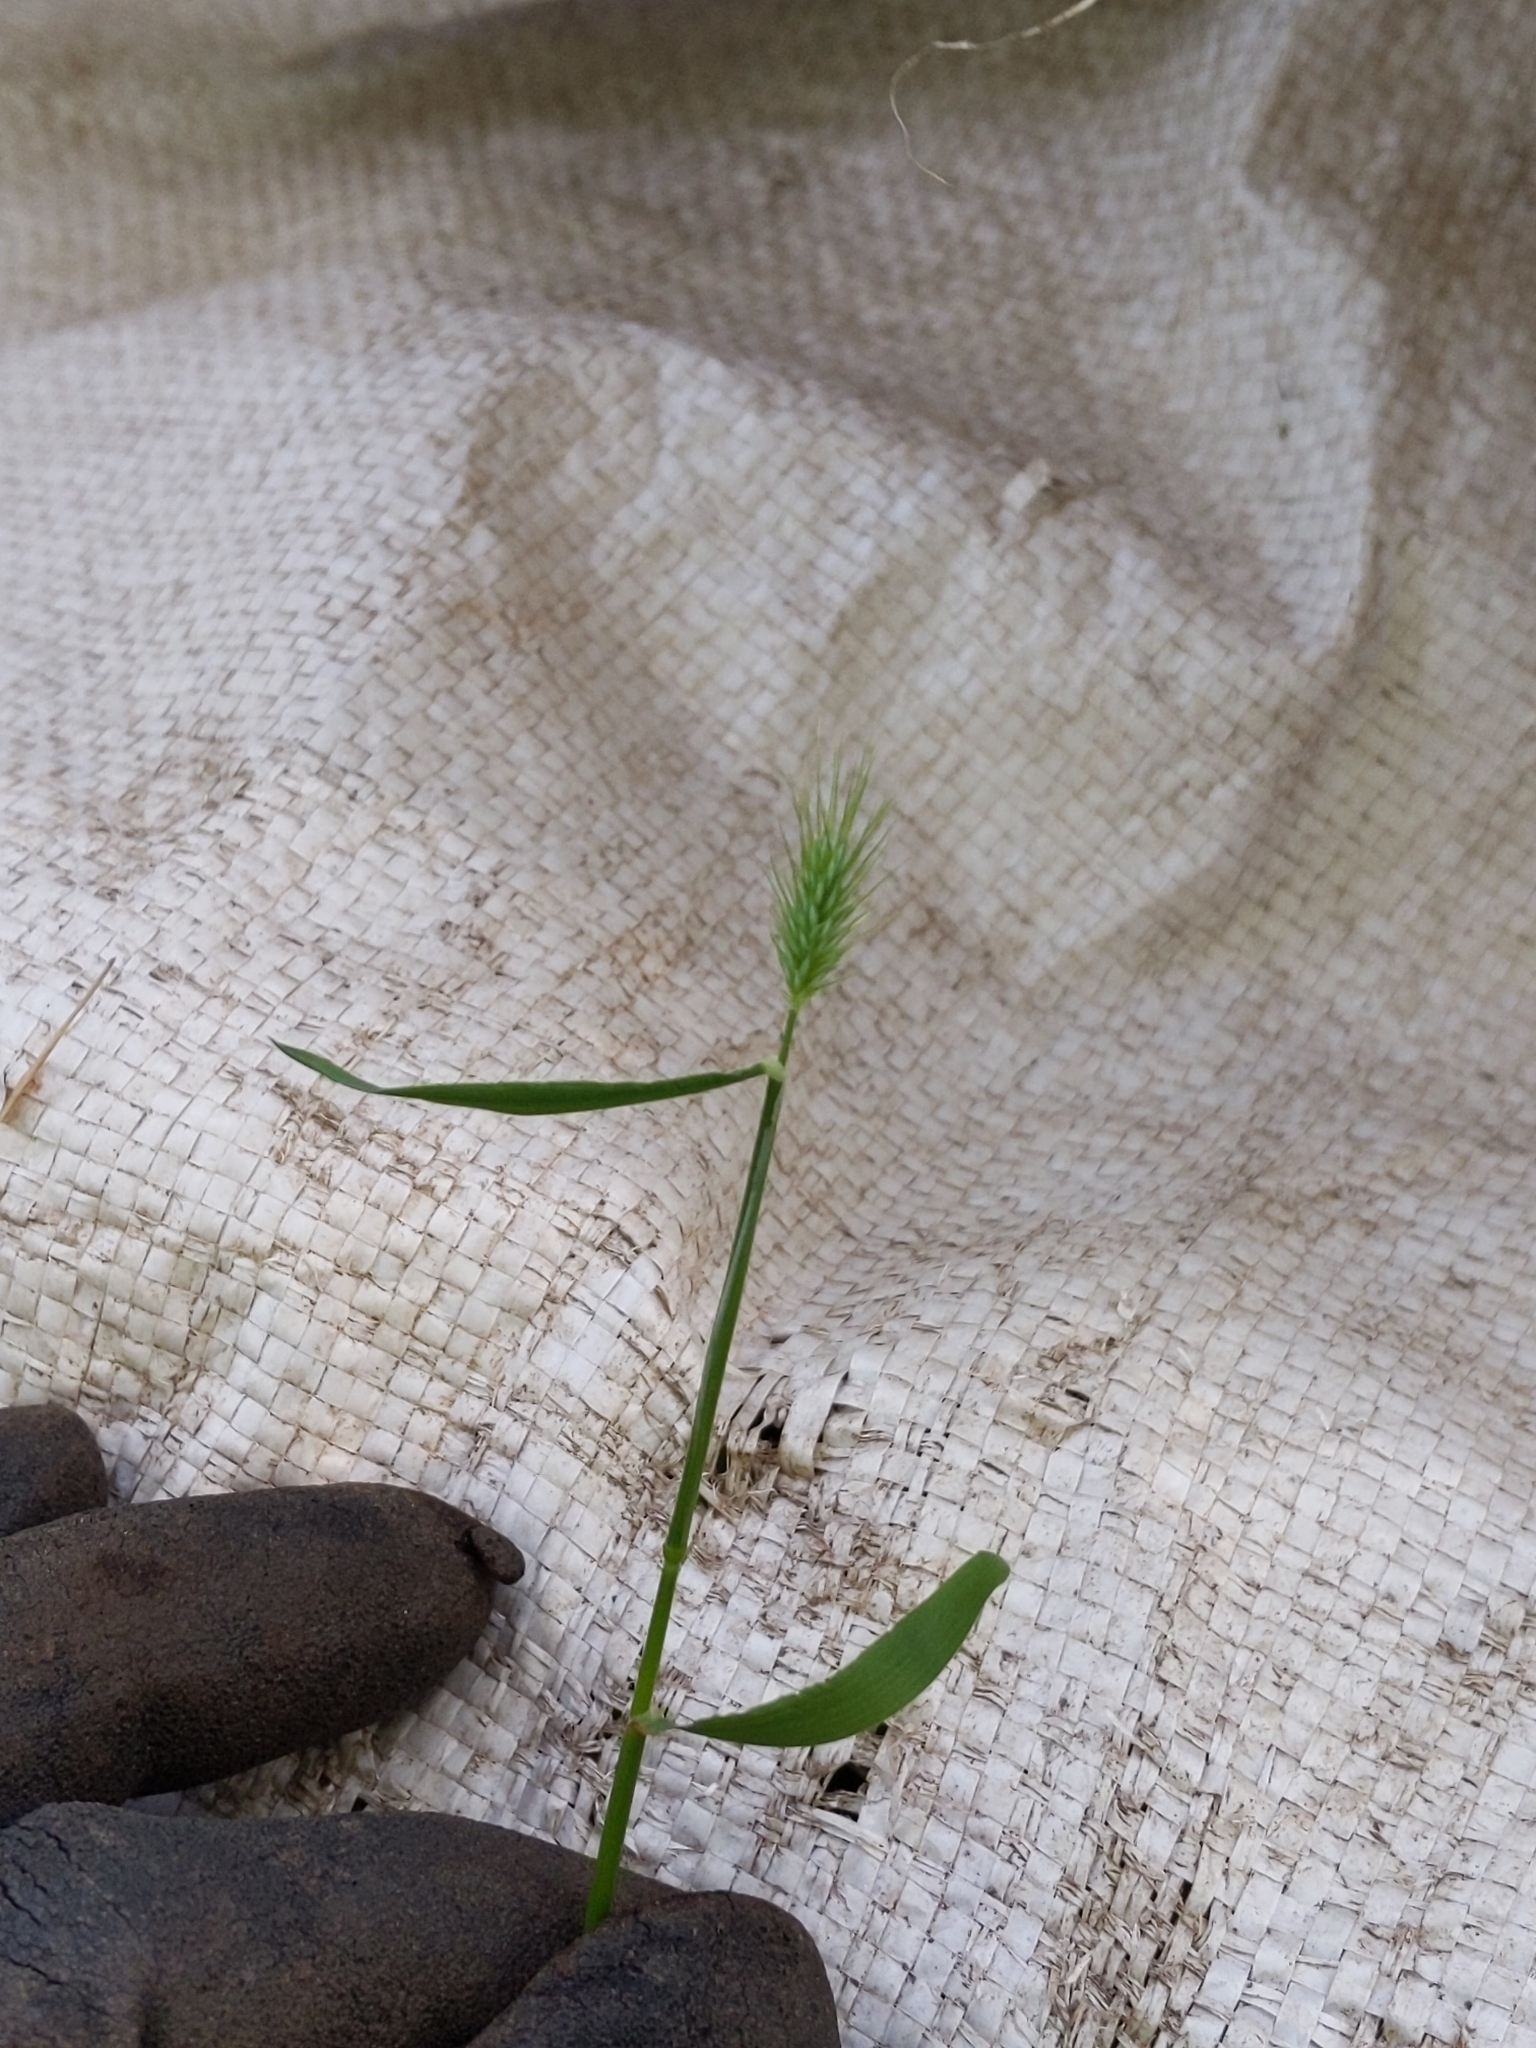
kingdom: Plantae
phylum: Tracheophyta
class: Liliopsida
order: Poales
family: Poaceae
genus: Echinopogon
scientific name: Echinopogon ovatus
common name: Hedgehog-grass
